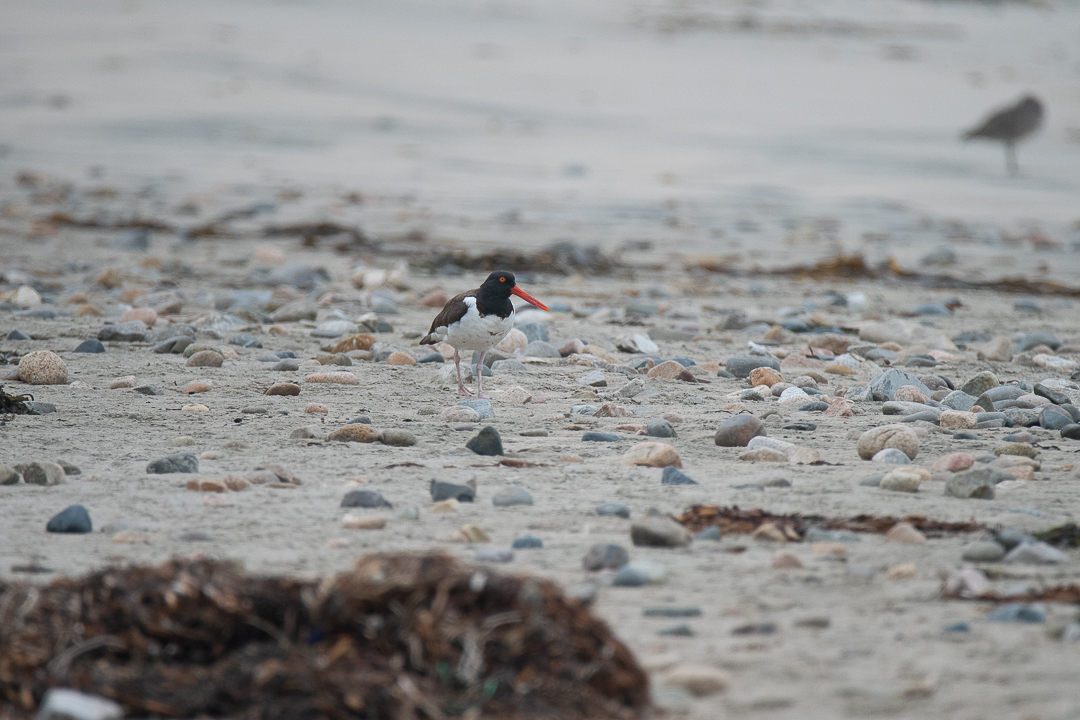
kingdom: Animalia
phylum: Chordata
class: Aves
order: Charadriiformes
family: Haematopodidae
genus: Haematopus
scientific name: Haematopus palliatus
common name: American oystercatcher
